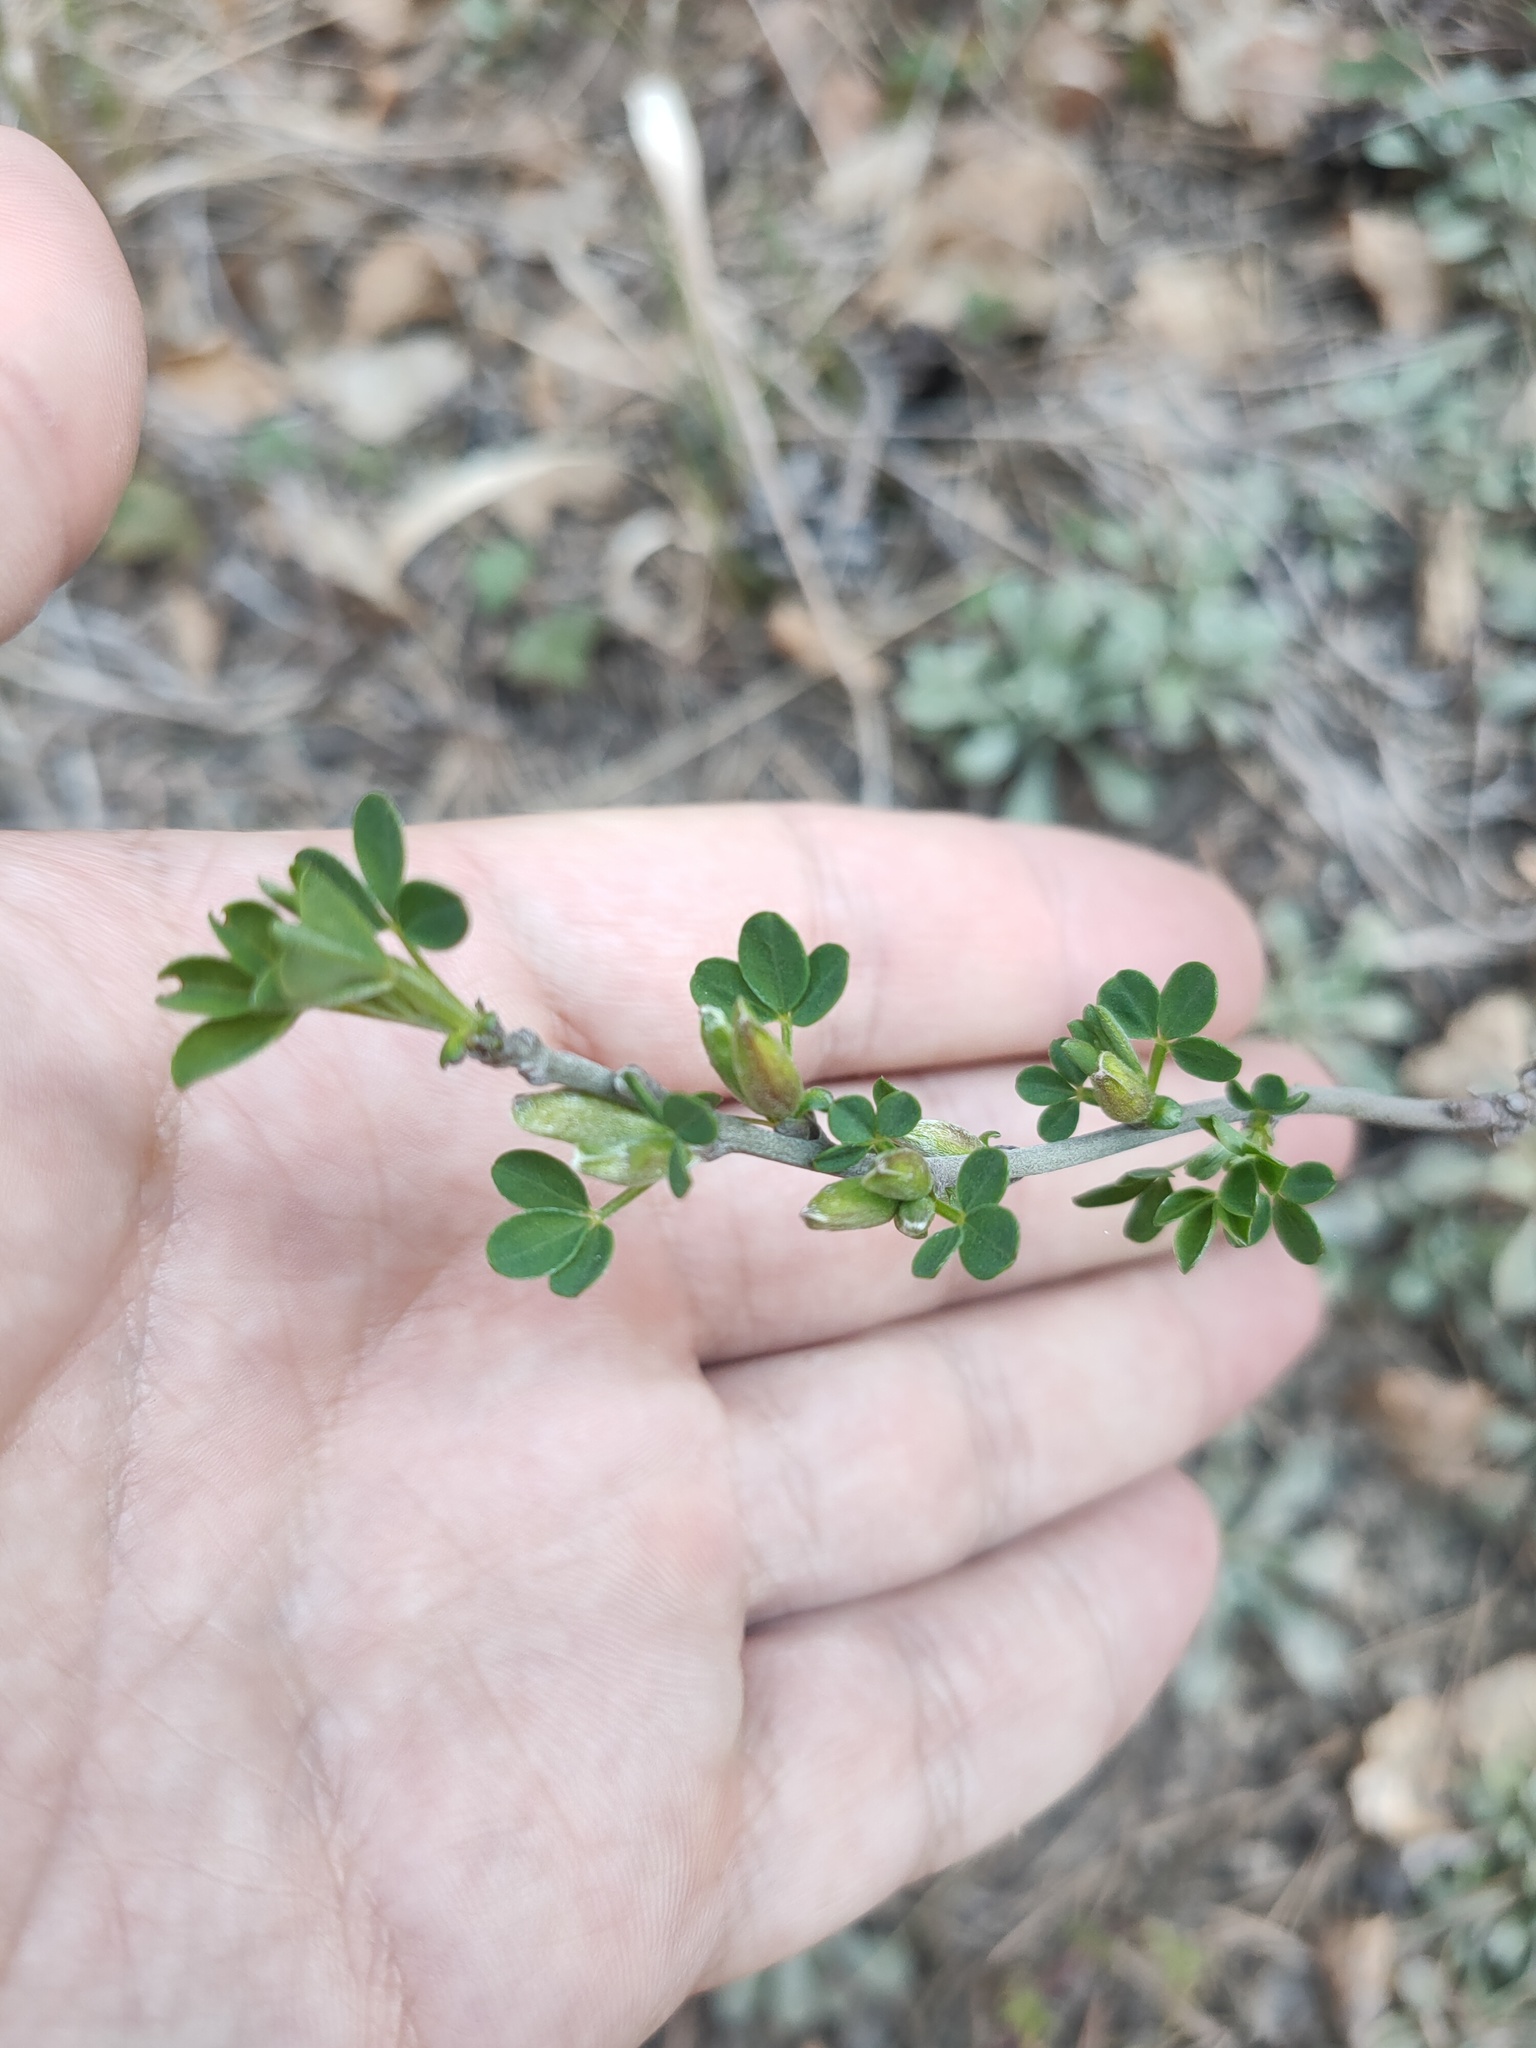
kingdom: Plantae
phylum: Tracheophyta
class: Magnoliopsida
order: Fabales
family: Fabaceae
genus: Chamaecytisus
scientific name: Chamaecytisus ruthenicus
